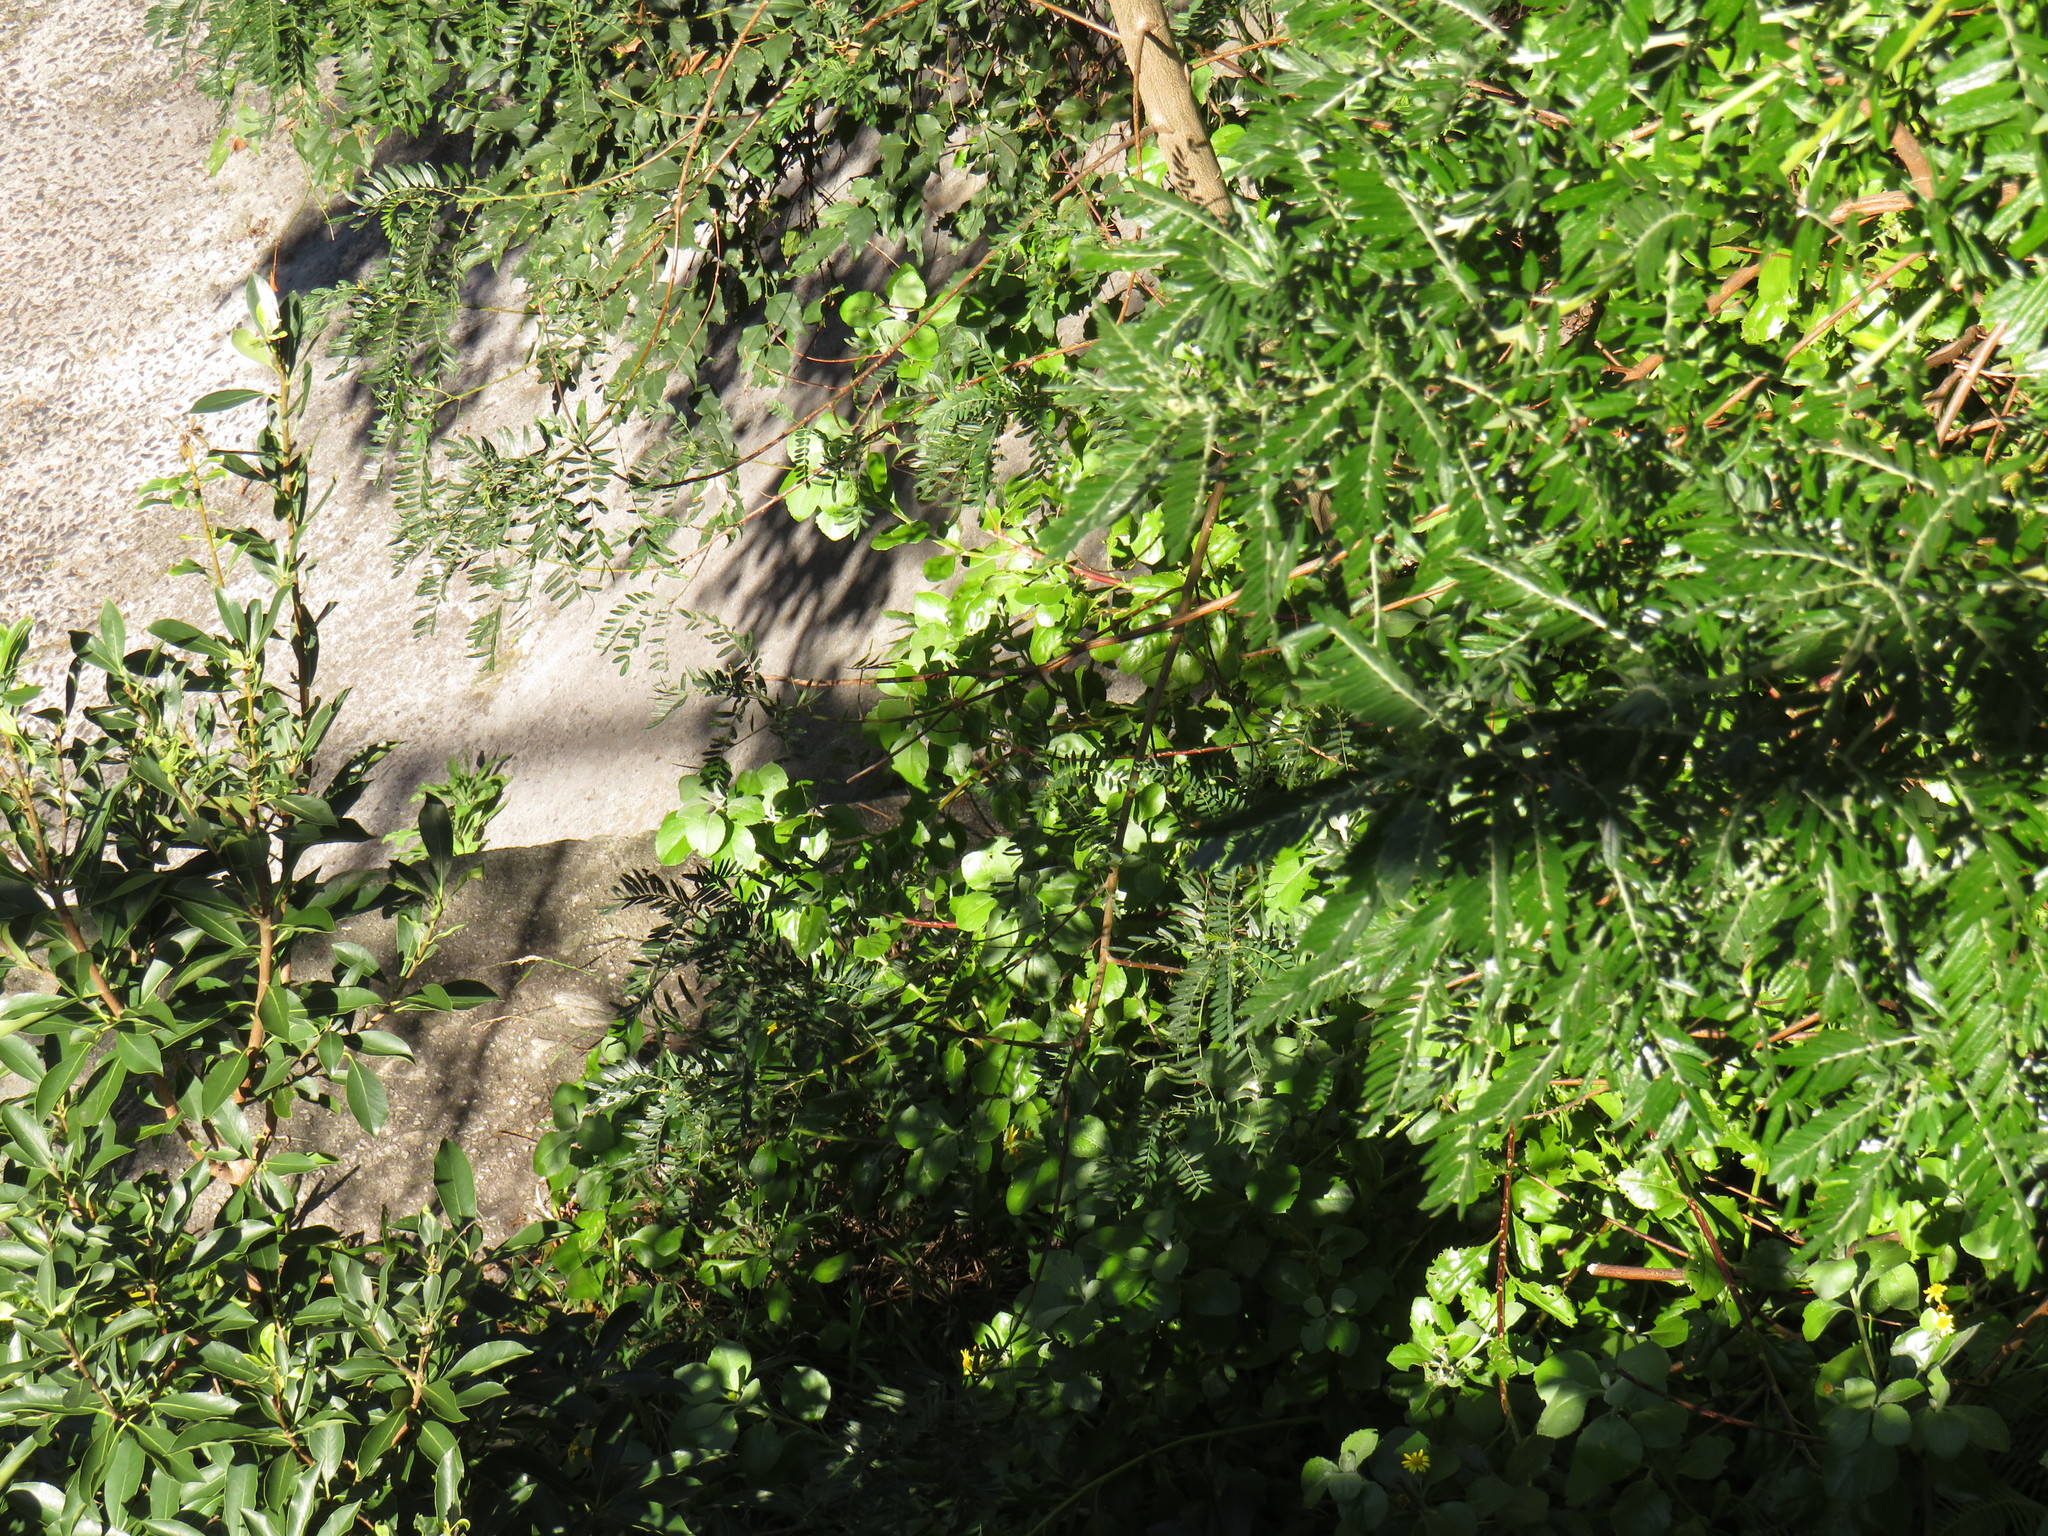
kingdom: Plantae
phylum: Tracheophyta
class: Magnoliopsida
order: Asterales
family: Asteraceae
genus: Osteospermum
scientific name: Osteospermum moniliferum
